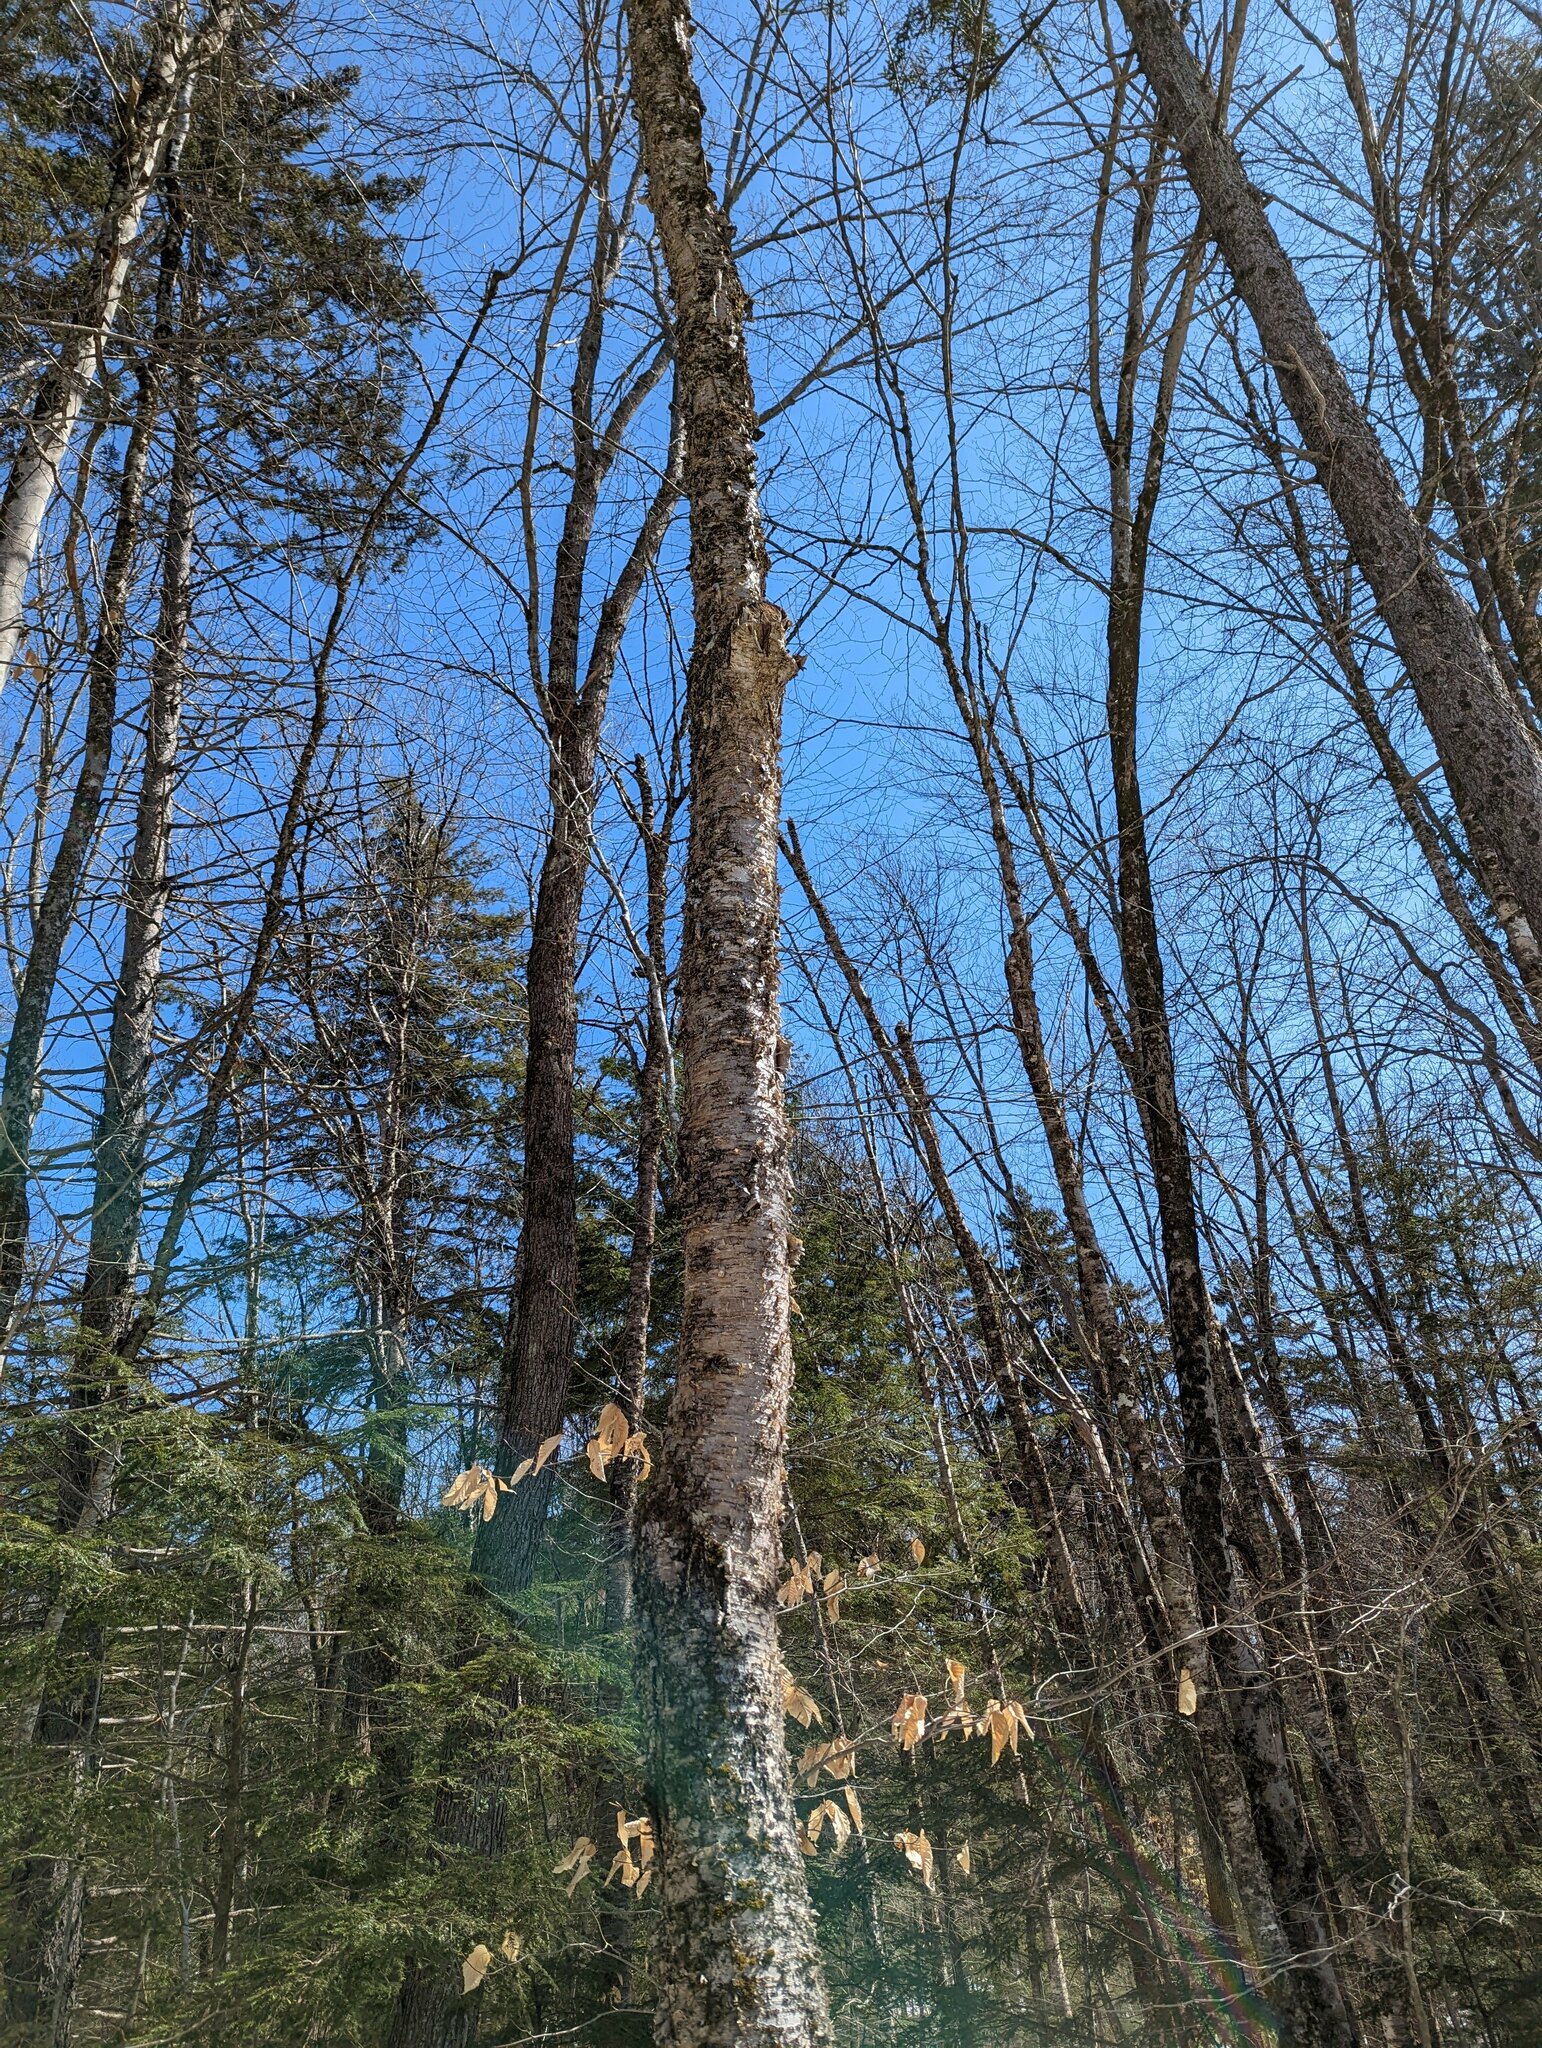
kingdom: Plantae
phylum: Tracheophyta
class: Magnoliopsida
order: Fagales
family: Betulaceae
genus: Betula
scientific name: Betula alleghaniensis
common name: Yellow birch
